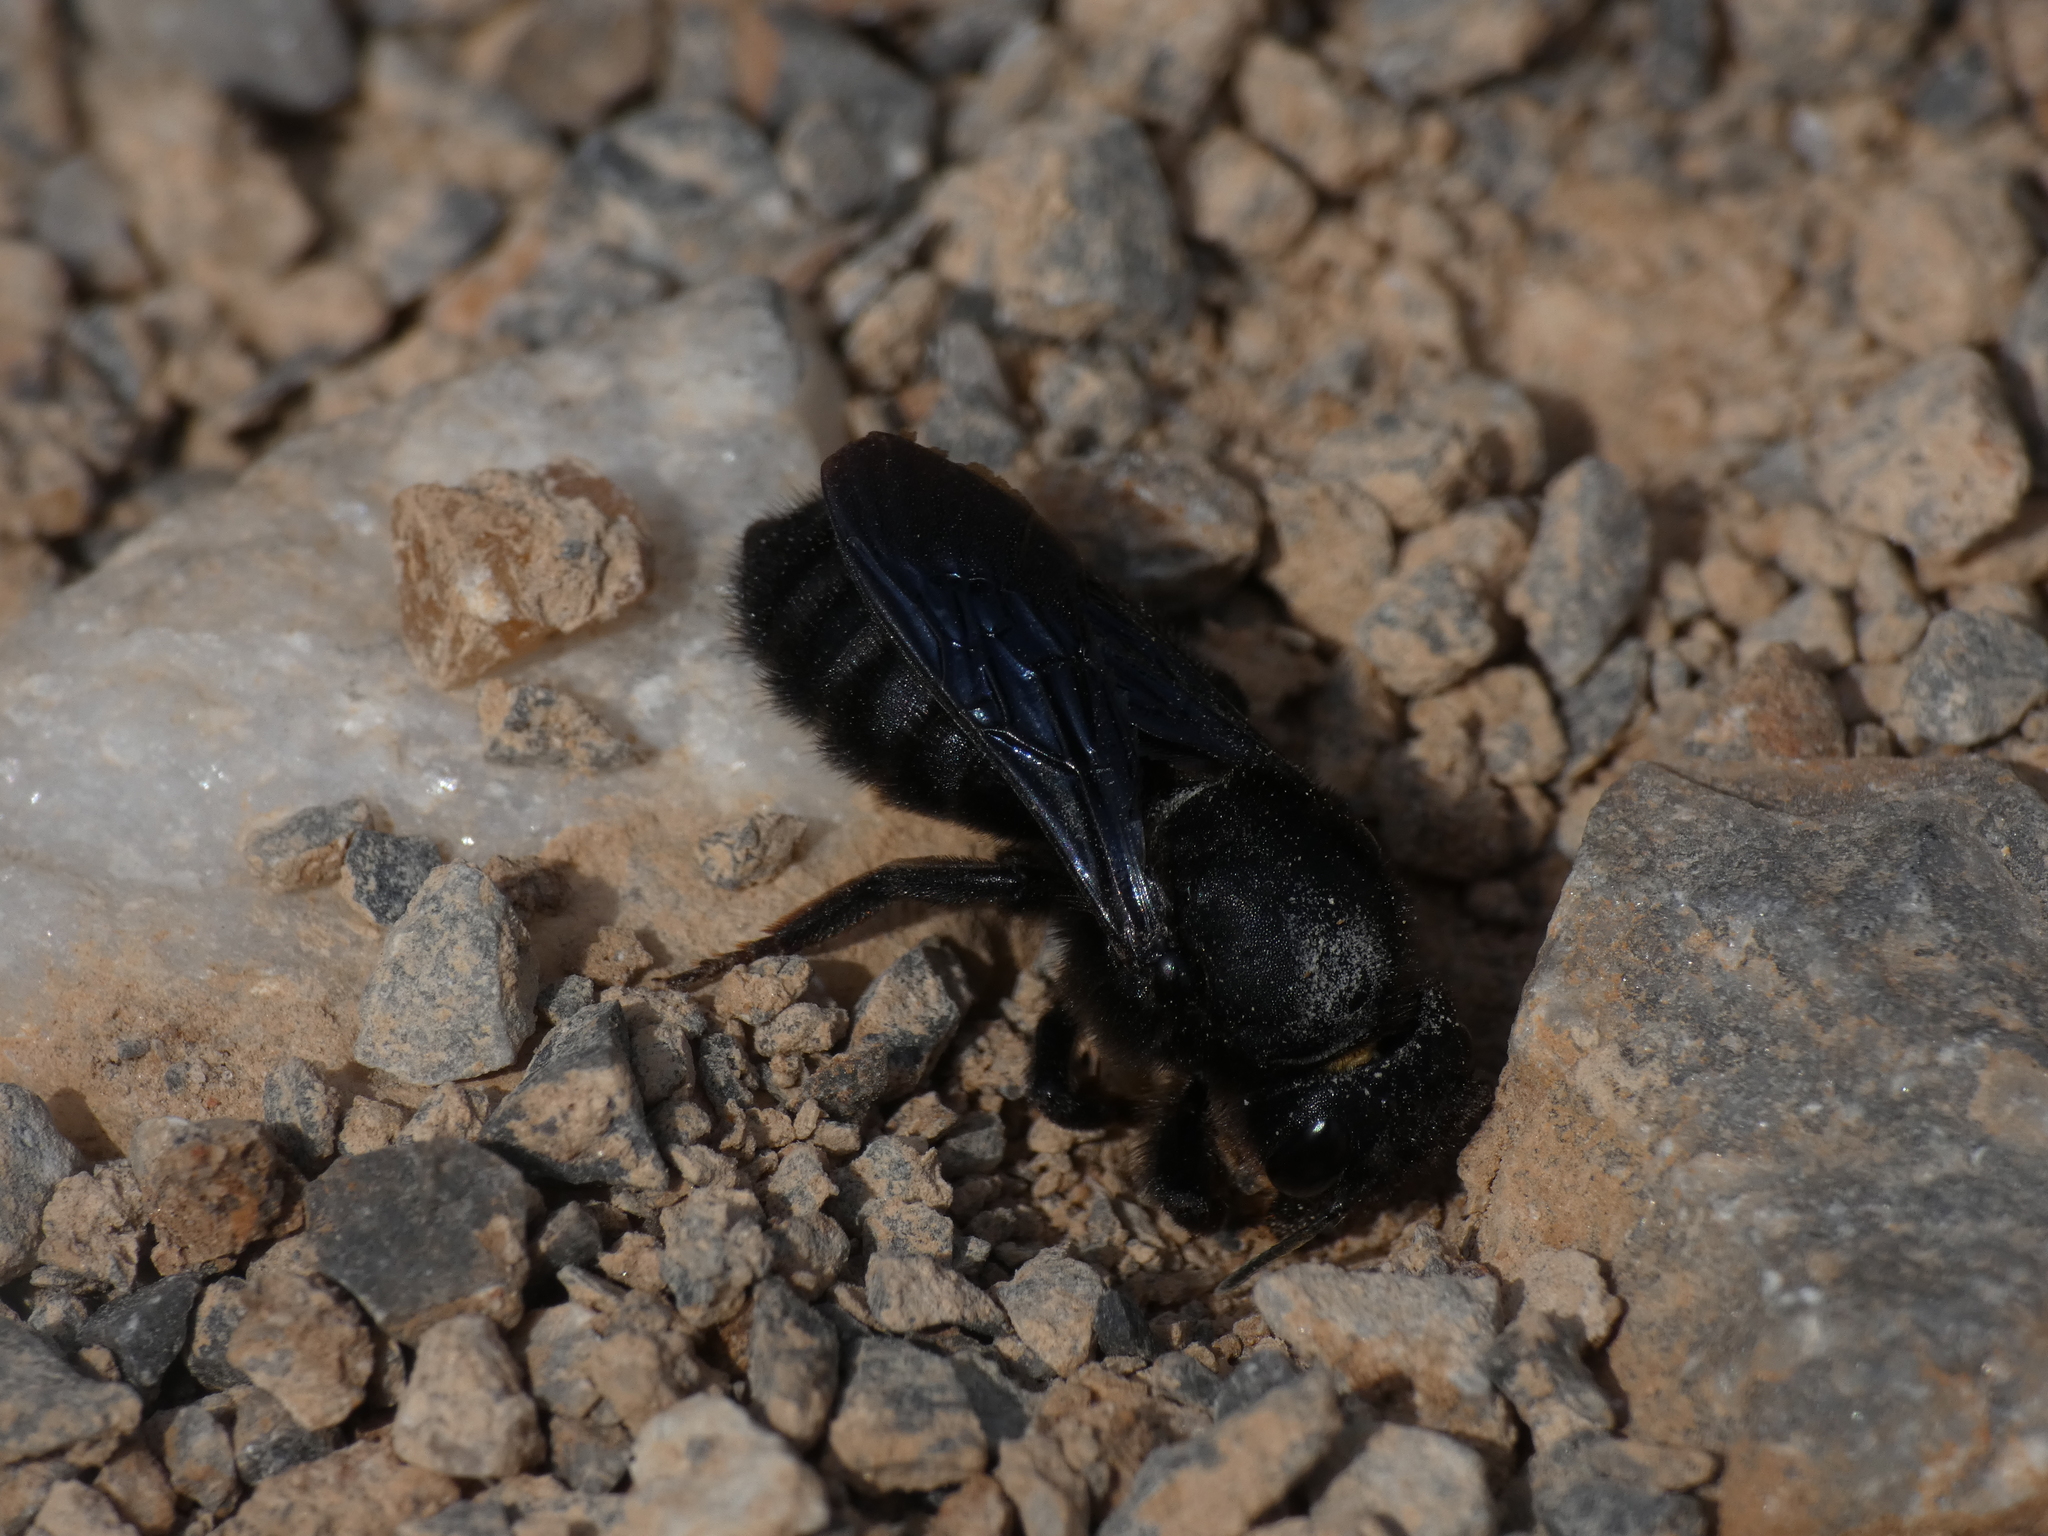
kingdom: Animalia
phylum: Arthropoda
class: Insecta
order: Hymenoptera
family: Megachilidae
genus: Megachile
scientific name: Megachile parietina
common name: Black mud bee
